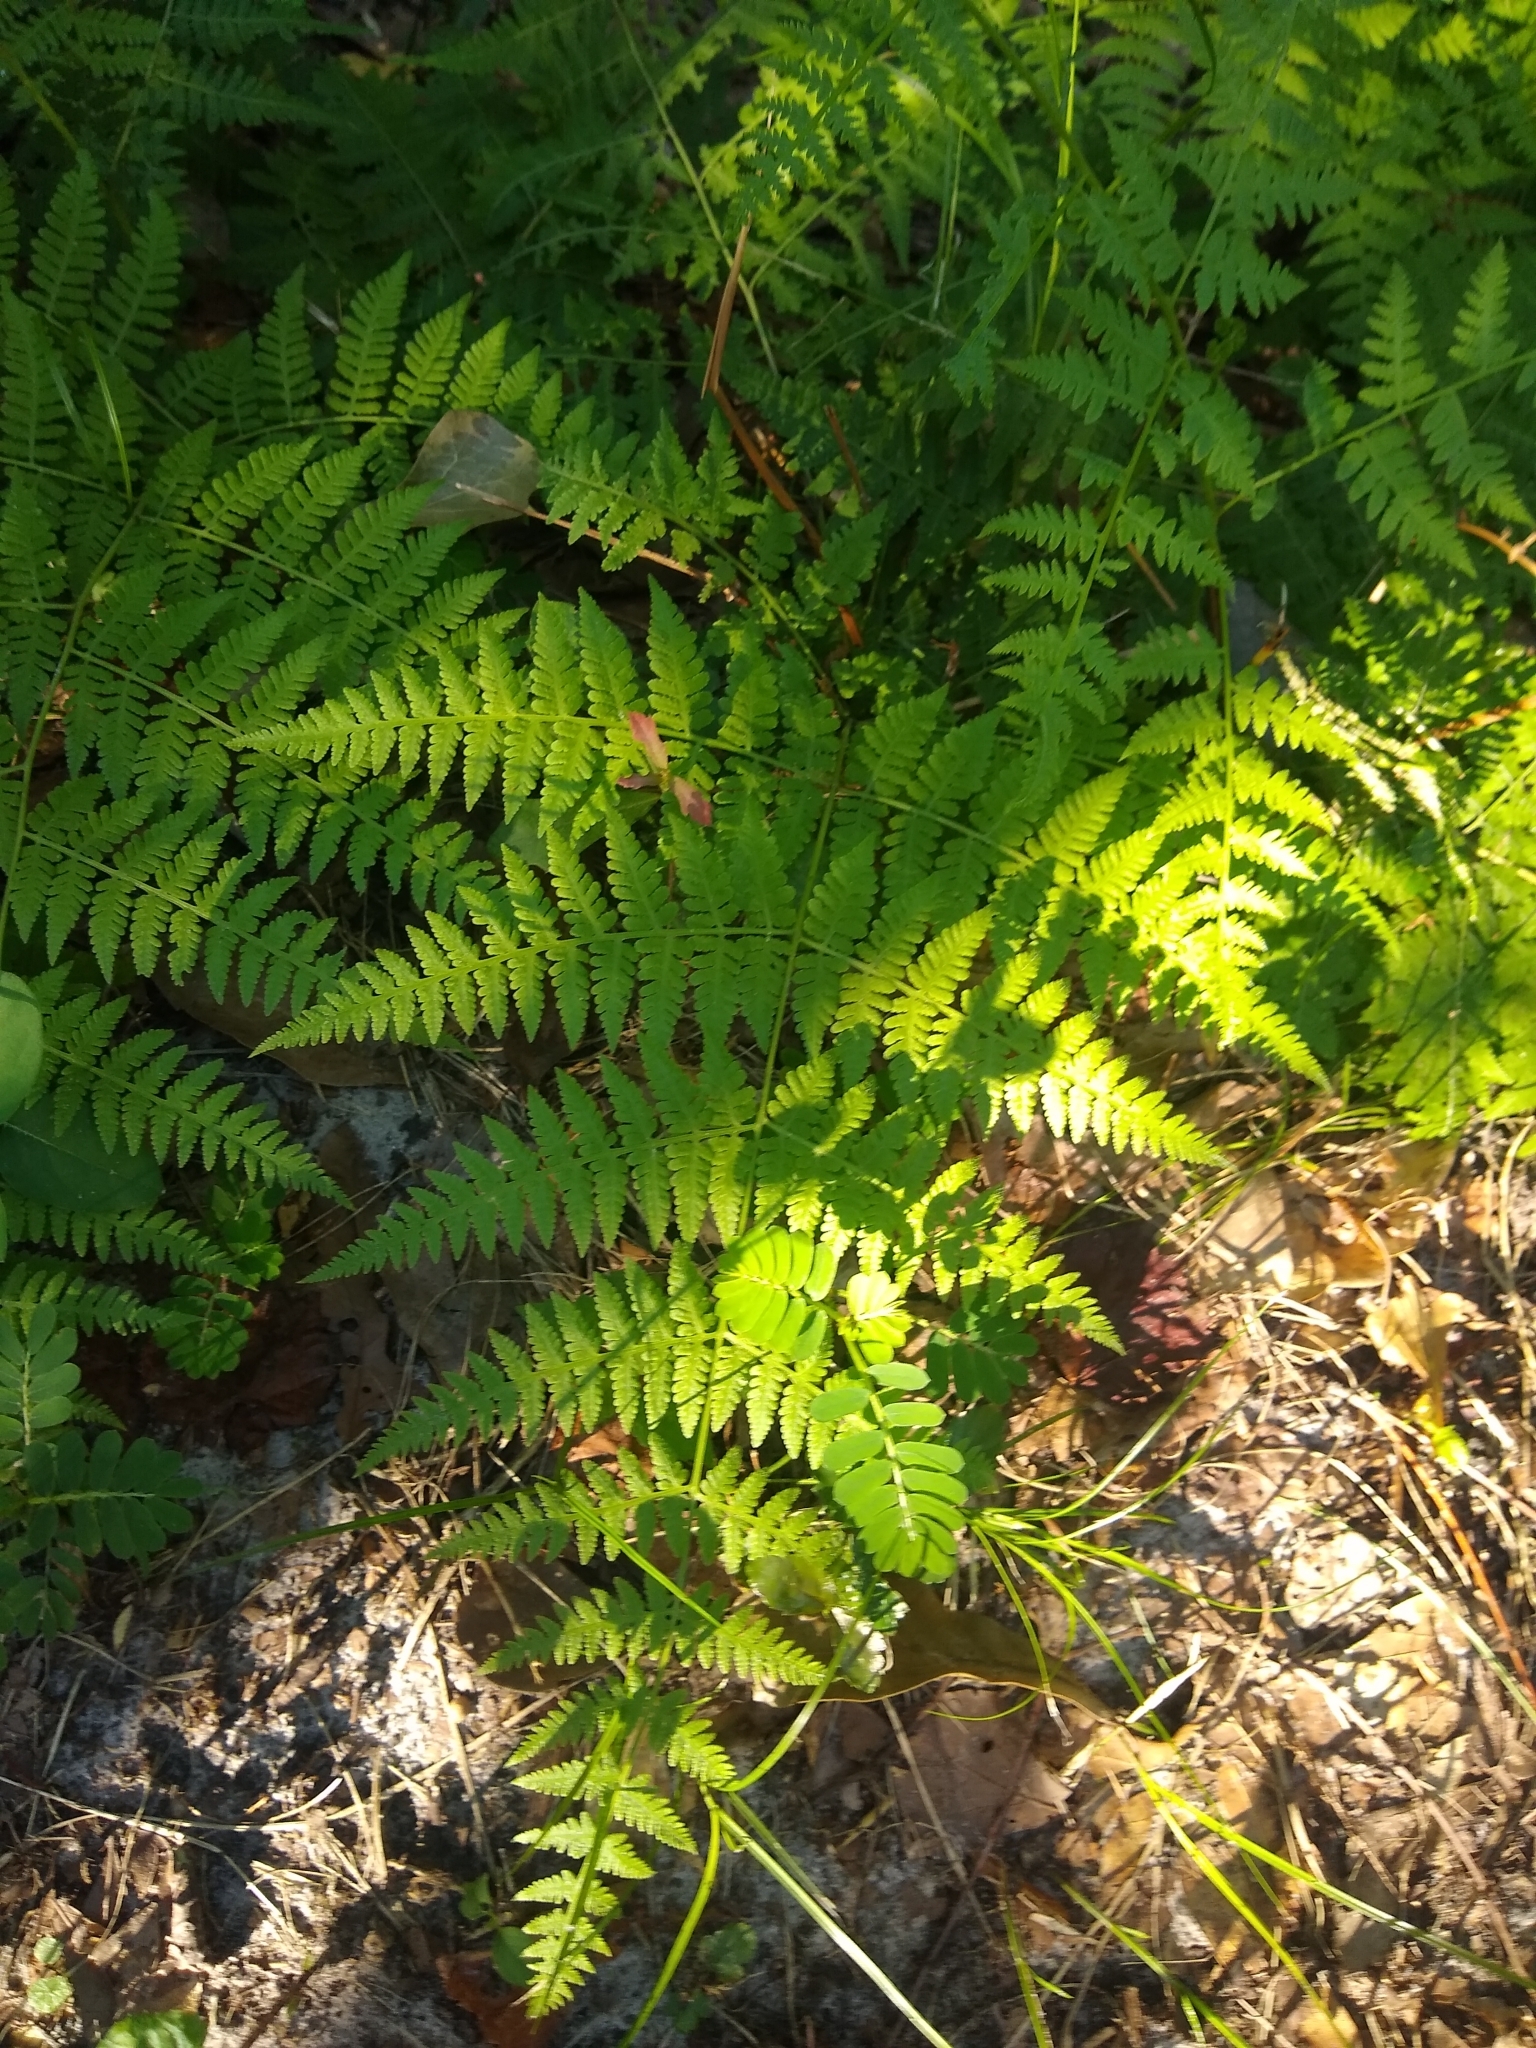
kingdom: Plantae
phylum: Tracheophyta
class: Polypodiopsida
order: Polypodiales
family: Thelypteridaceae
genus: Macrothelypteris
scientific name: Macrothelypteris torresiana
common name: Swordfern
